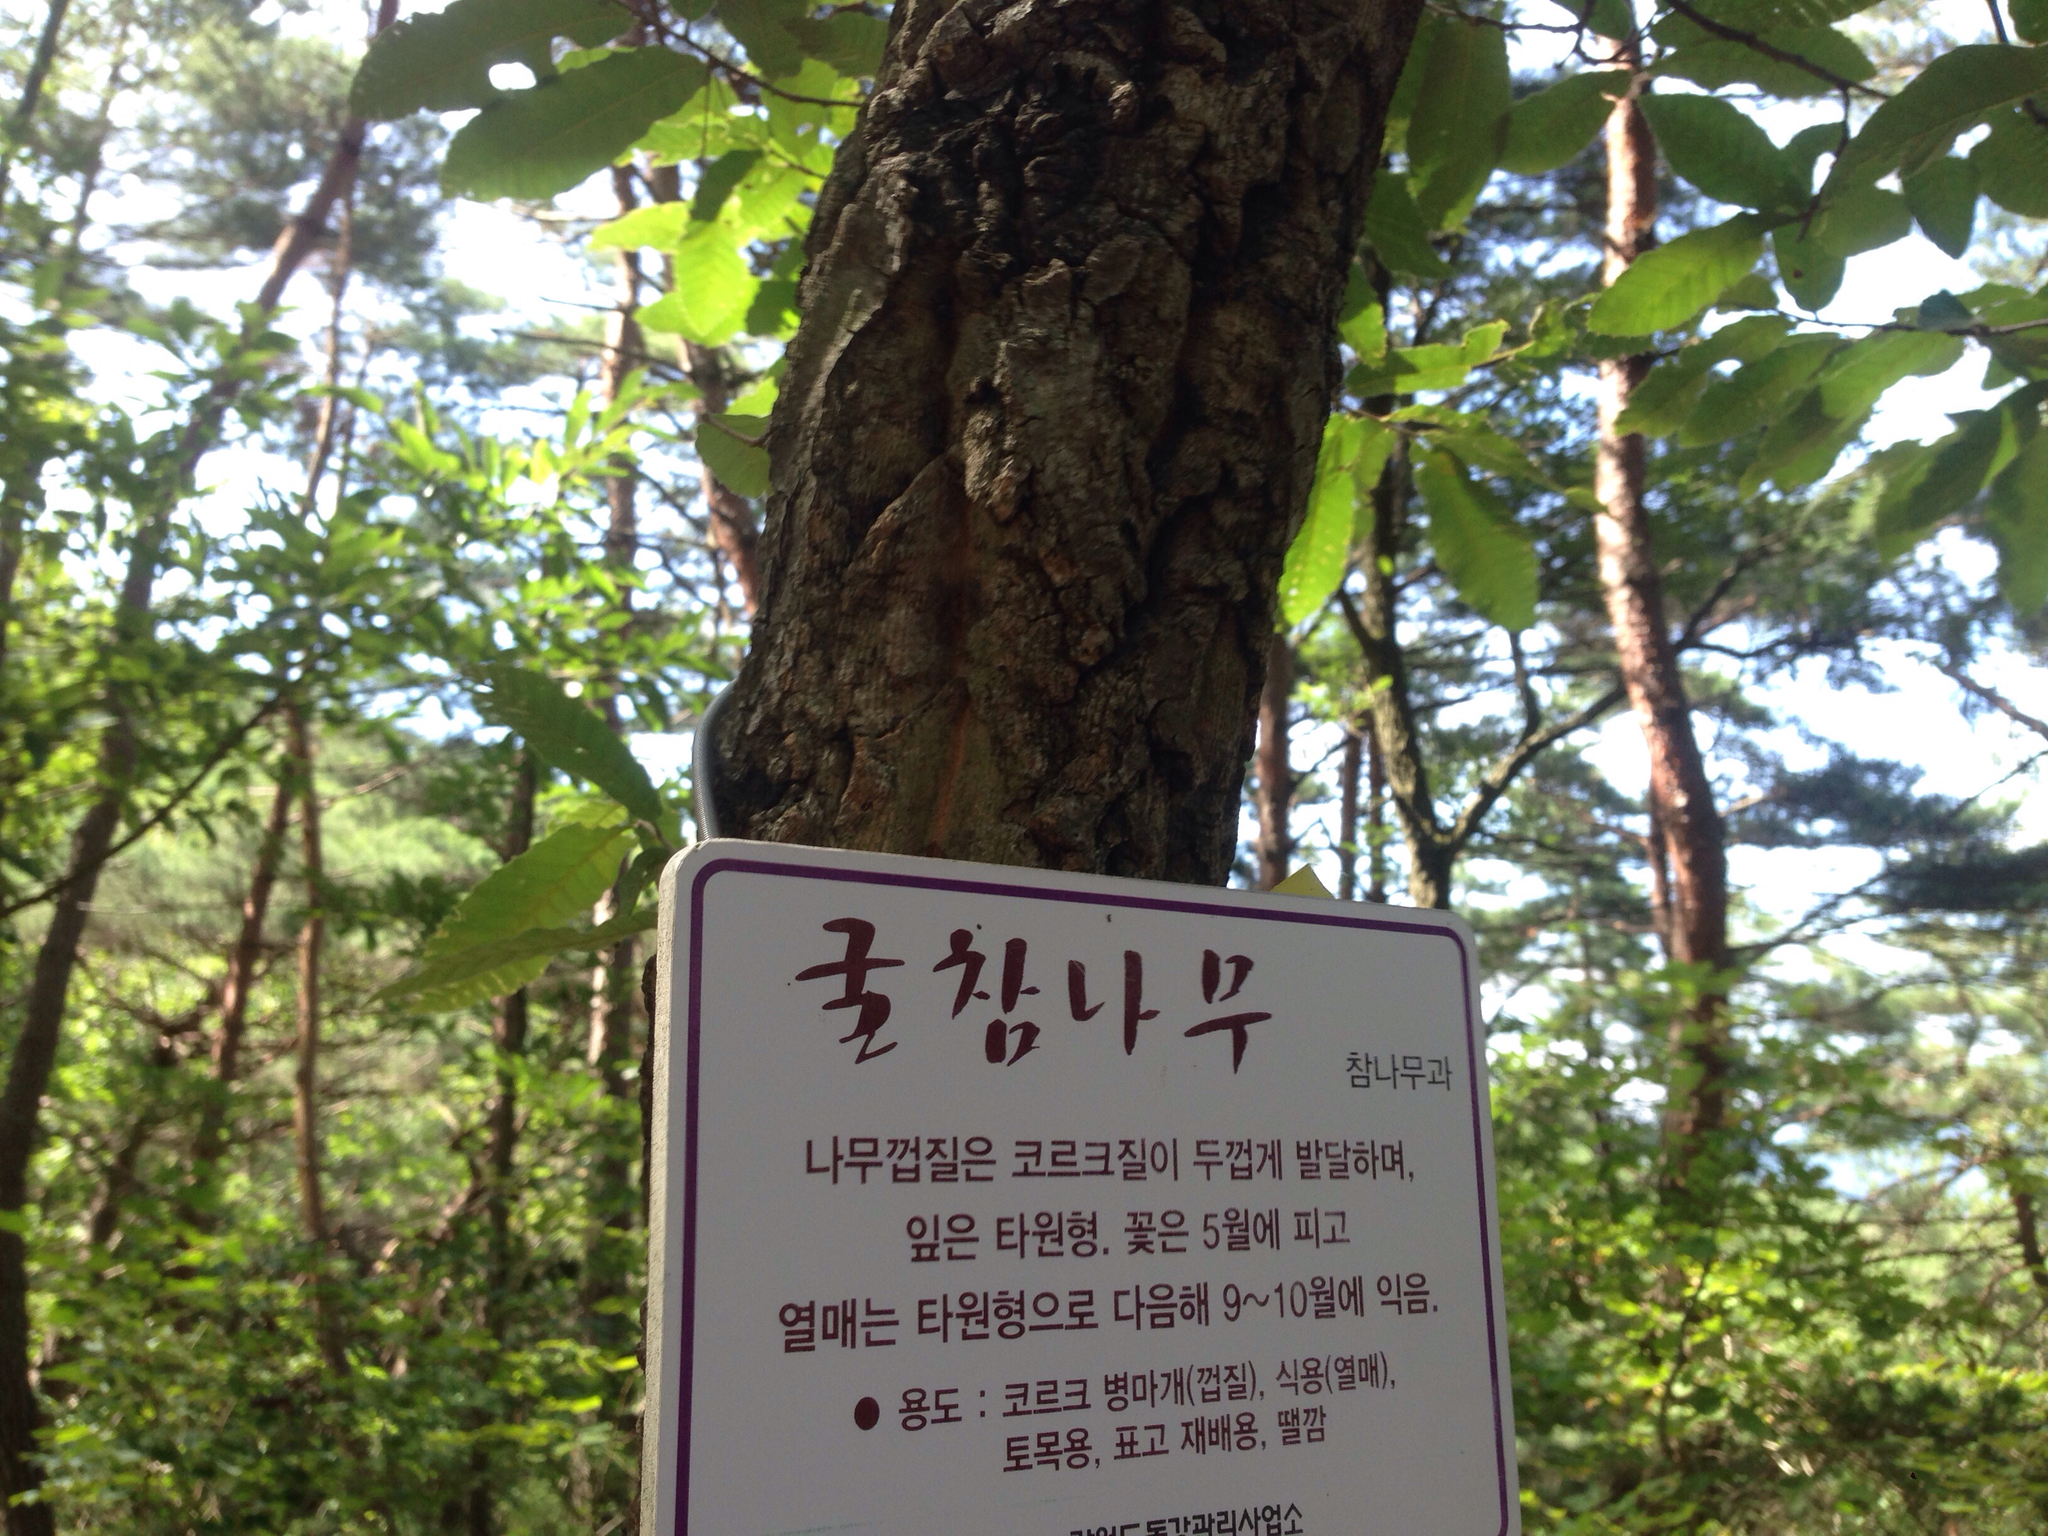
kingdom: Plantae
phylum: Tracheophyta
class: Magnoliopsida
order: Fagales
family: Fagaceae
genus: Quercus
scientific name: Quercus variabilis
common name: Chinese cork oak
